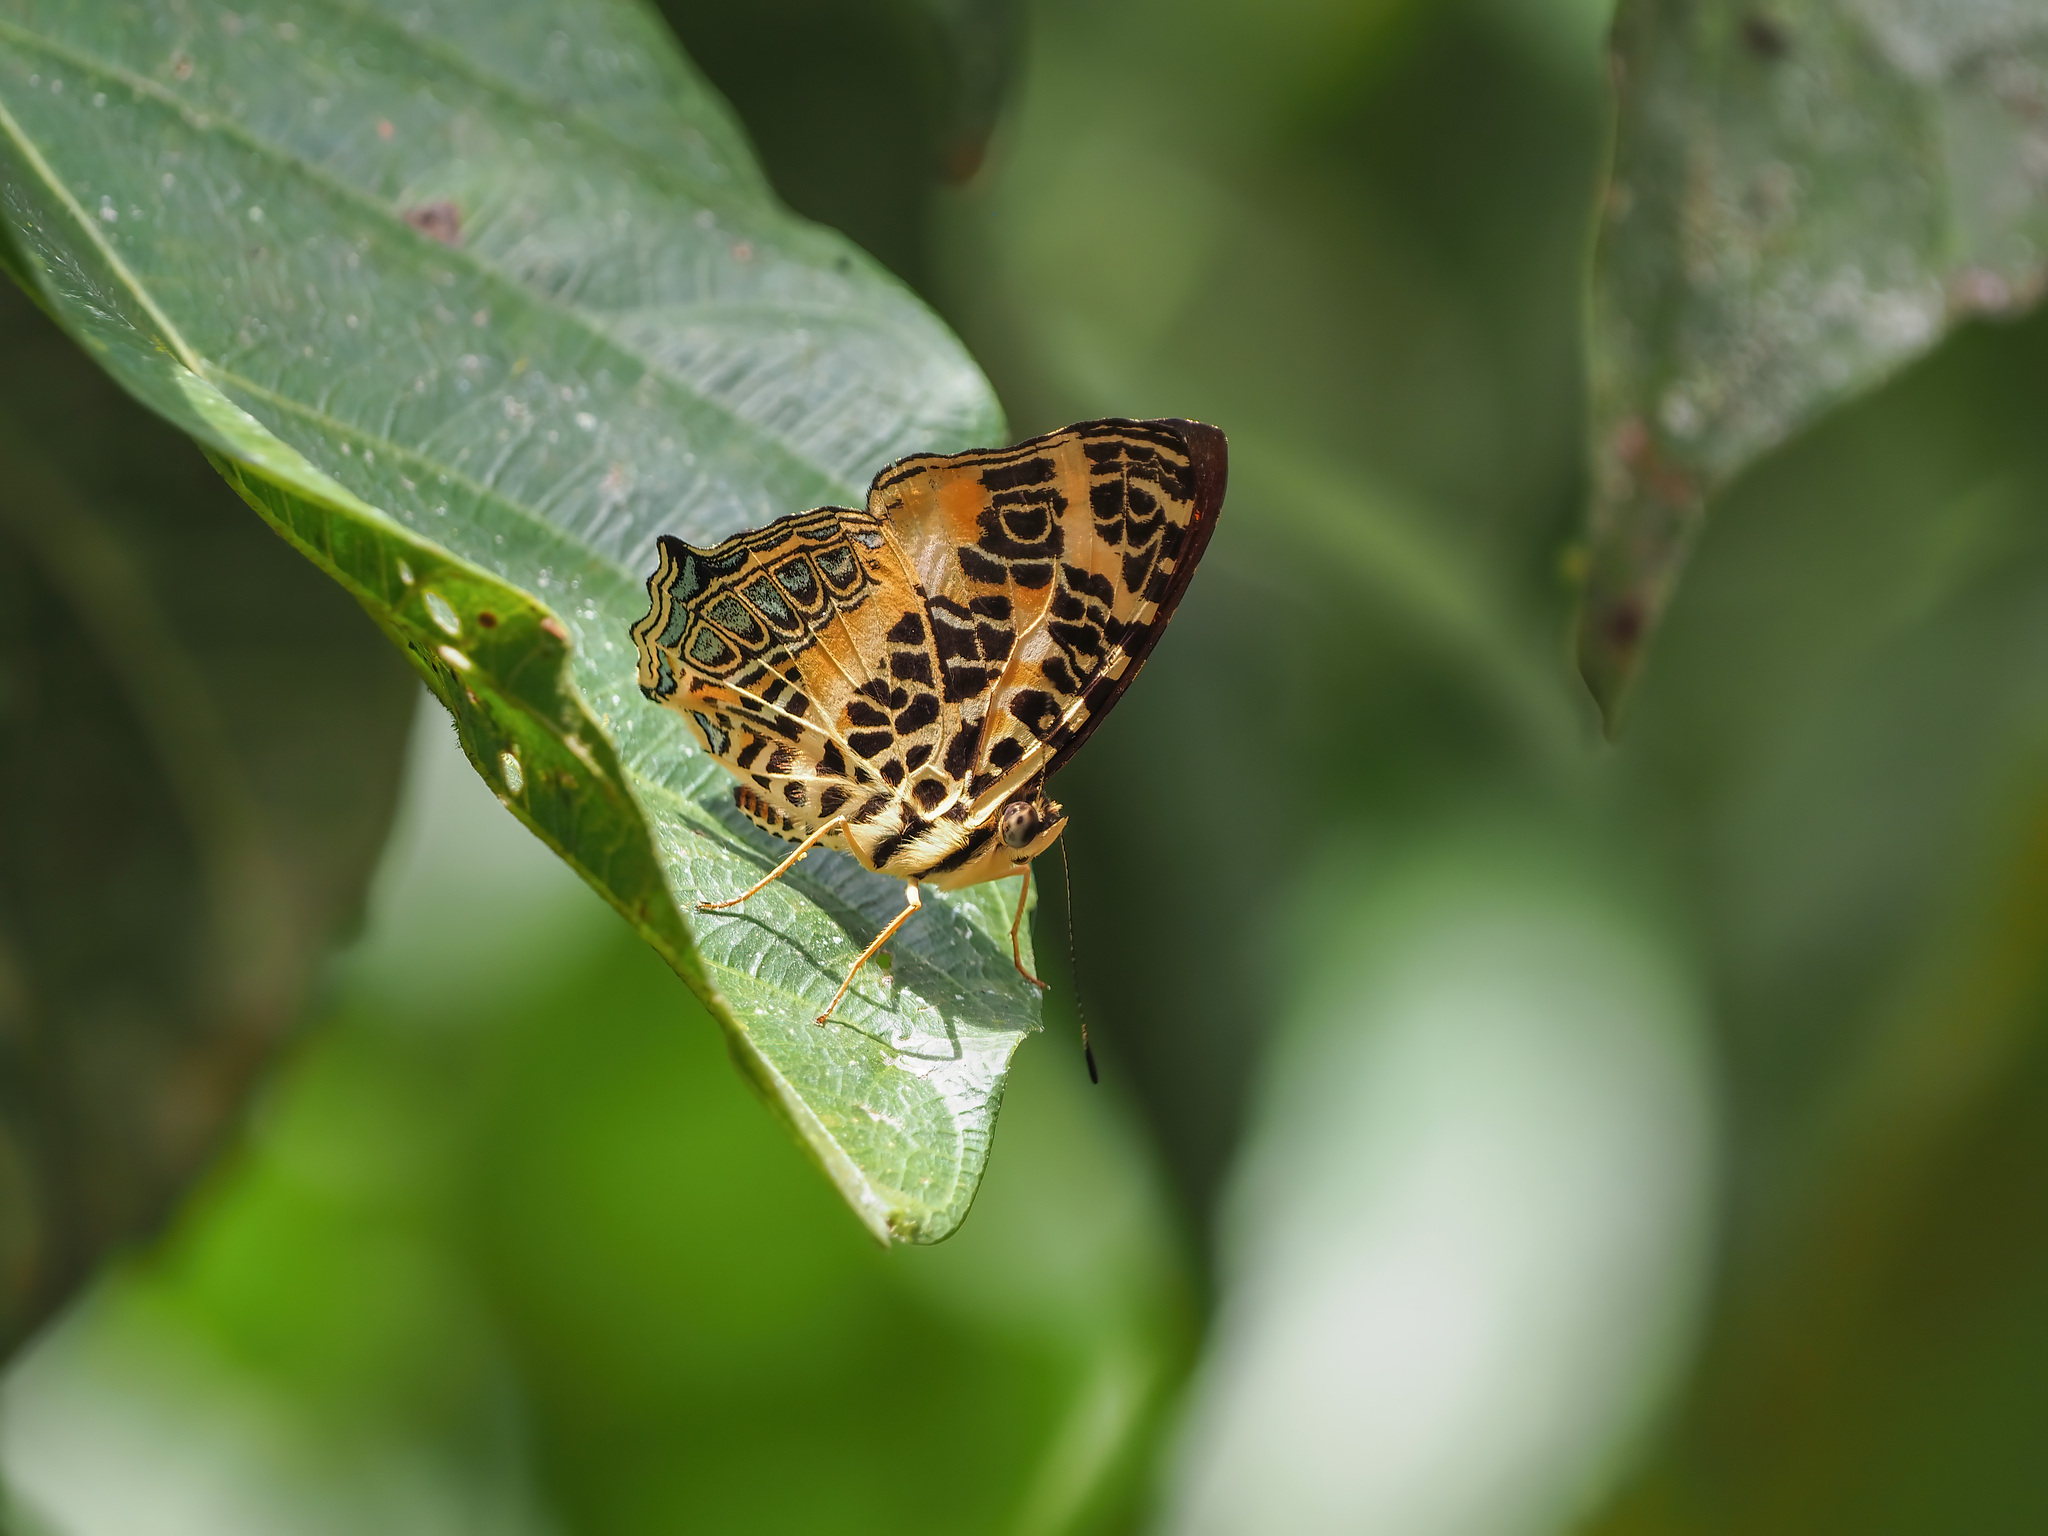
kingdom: Animalia
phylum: Arthropoda
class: Insecta
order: Lepidoptera
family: Nymphalidae
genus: Symbrenthia
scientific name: Symbrenthia hypselis
